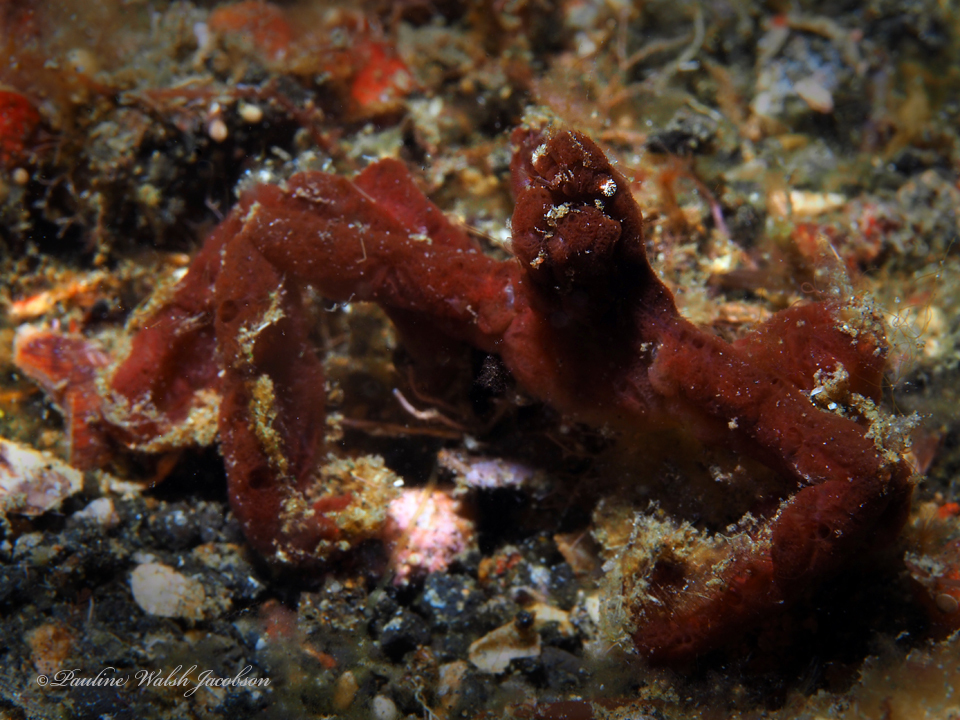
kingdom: Animalia
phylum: Arthropoda
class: Malacostraca
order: Decapoda
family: Inachidae
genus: Achaeus
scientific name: Achaeus japonicus
